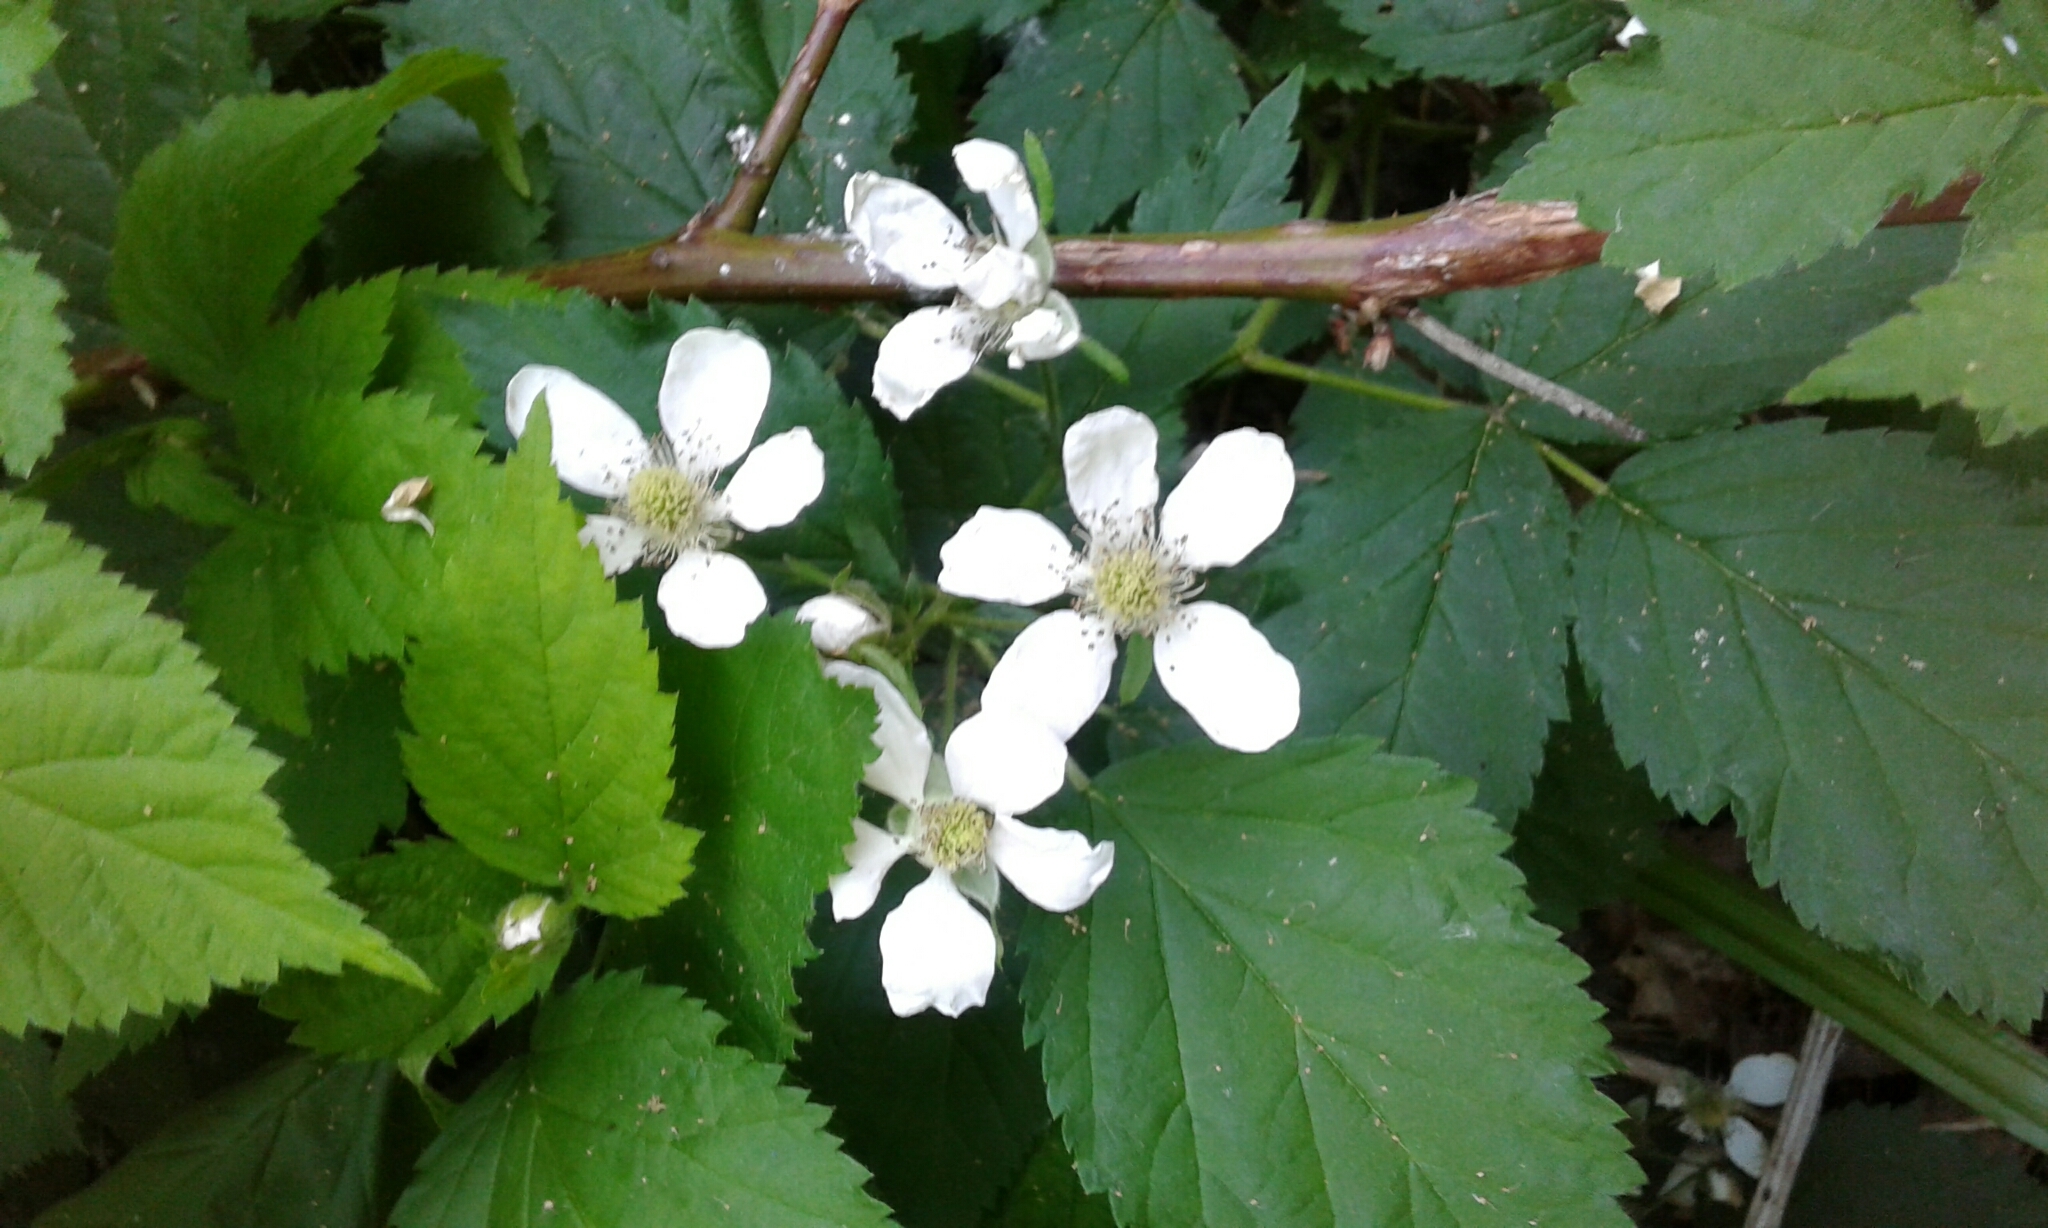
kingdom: Plantae
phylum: Tracheophyta
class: Magnoliopsida
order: Rosales
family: Rosaceae
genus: Rubus
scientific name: Rubus idaeus
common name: Raspberry
